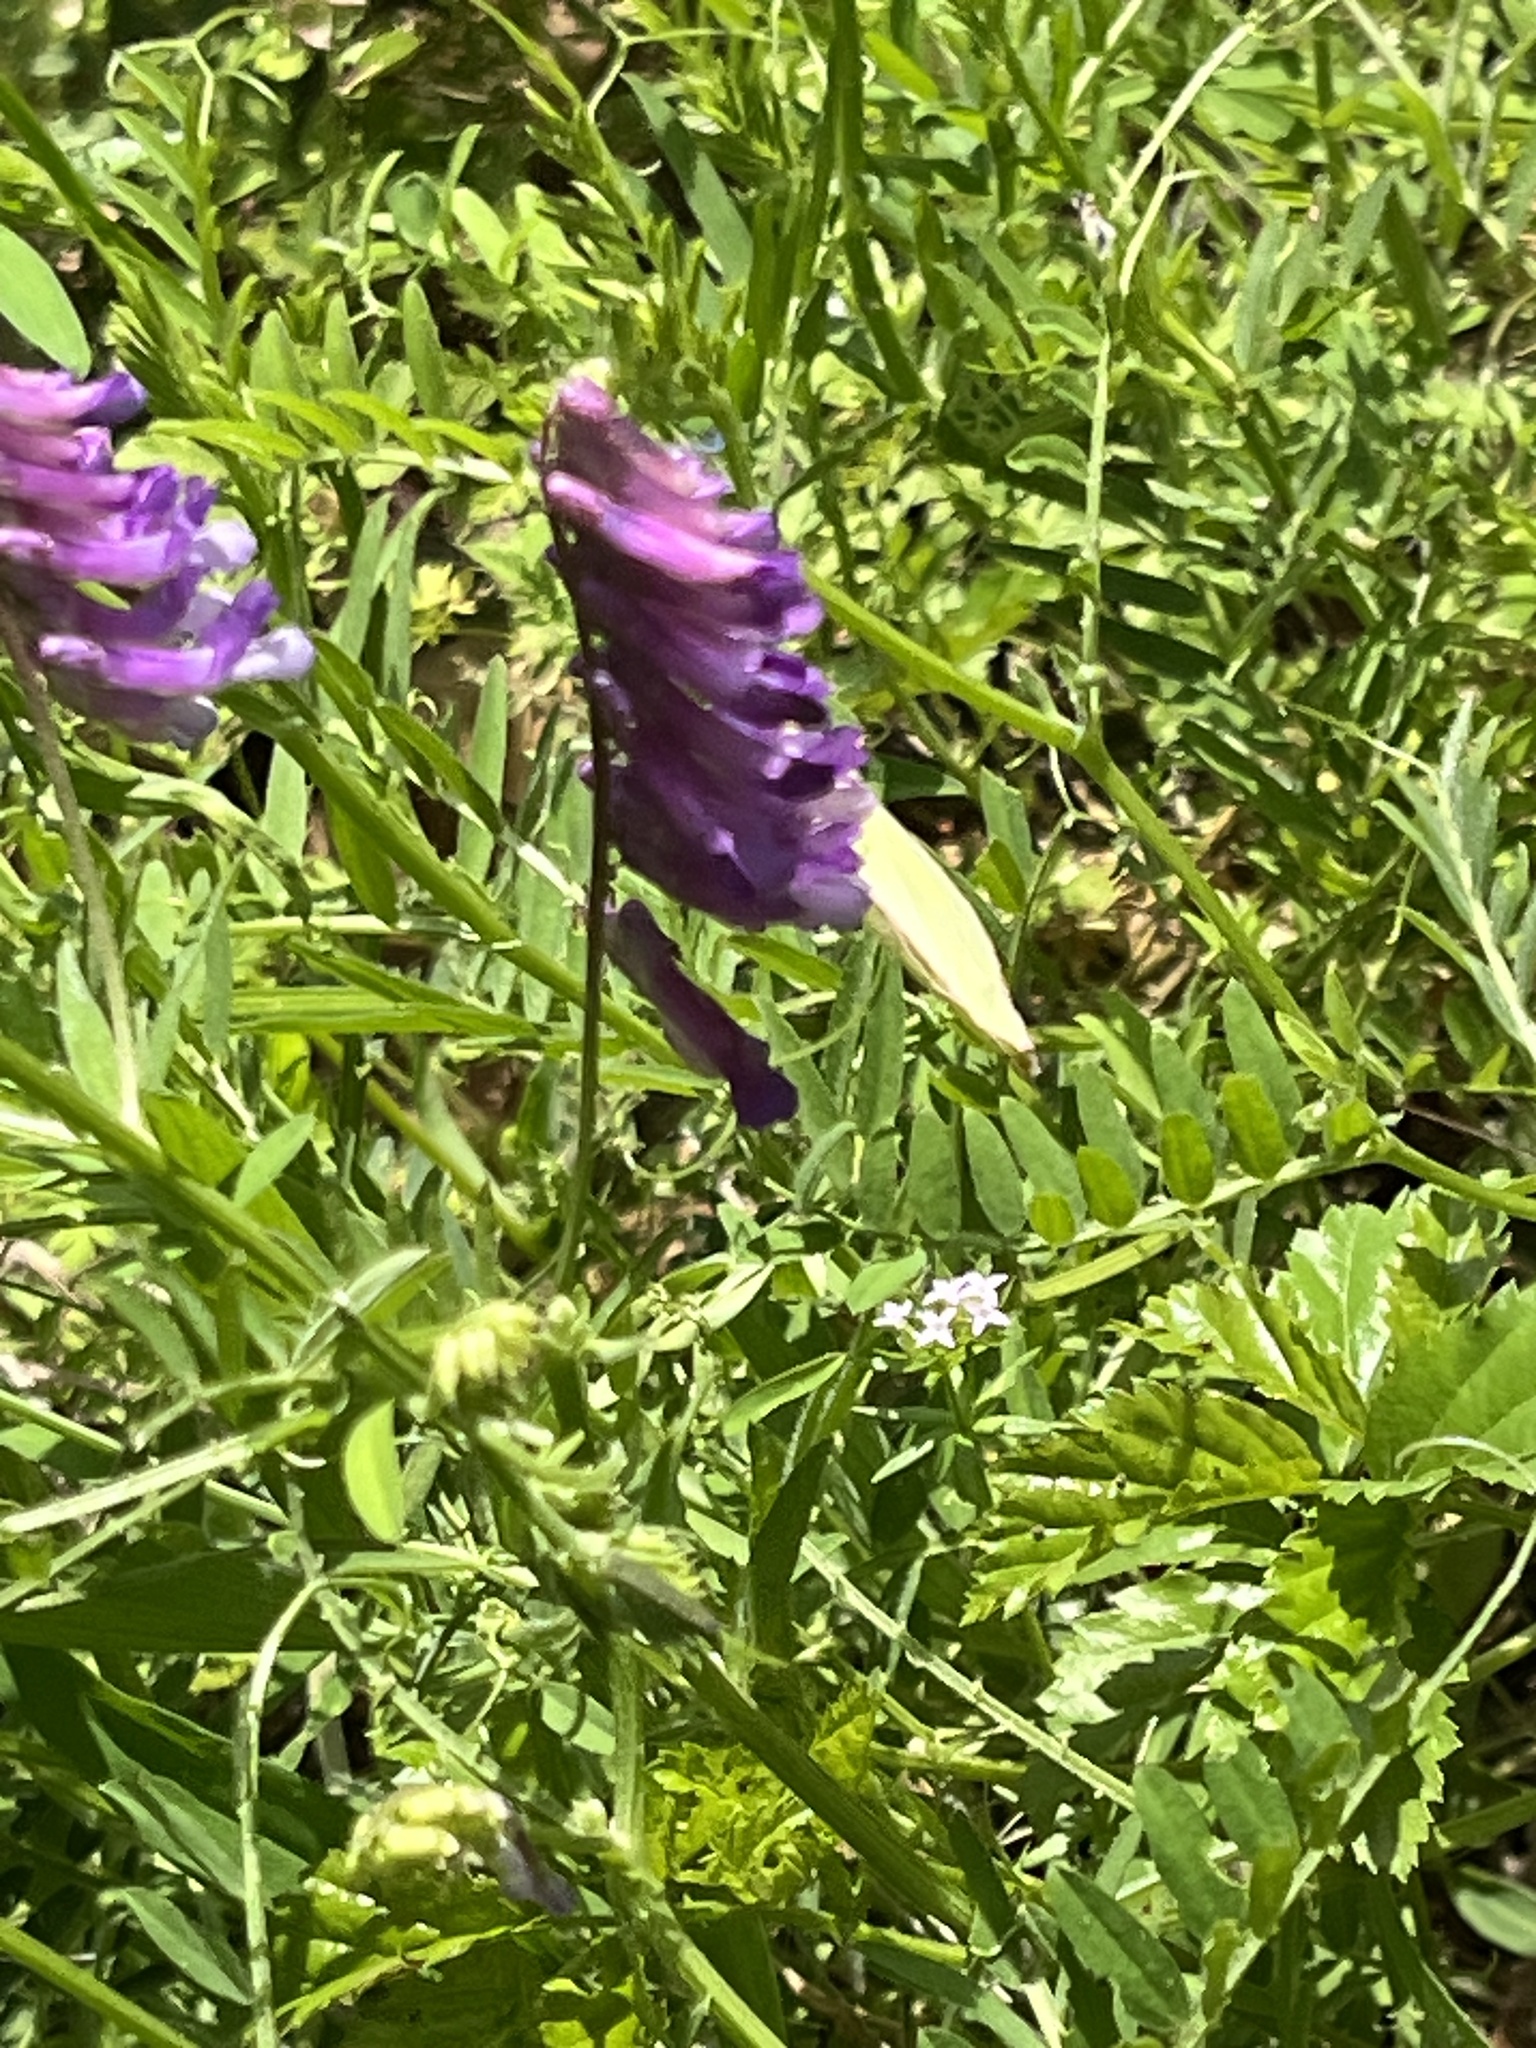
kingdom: Plantae
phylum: Tracheophyta
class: Magnoliopsida
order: Fabales
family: Fabaceae
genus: Vicia
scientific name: Vicia villosa
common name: Fodder vetch
